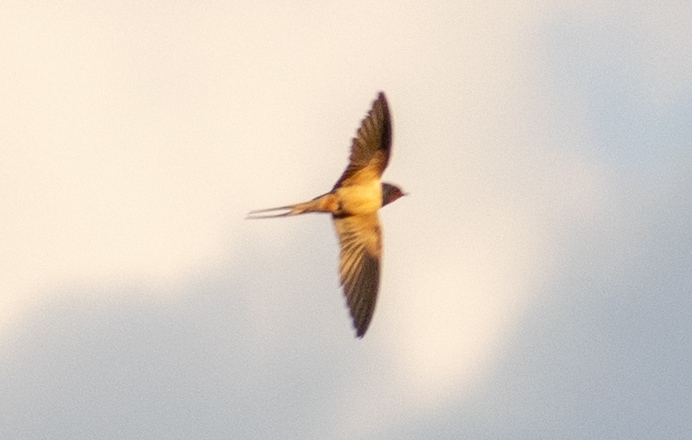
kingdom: Animalia
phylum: Chordata
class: Aves
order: Passeriformes
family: Hirundinidae
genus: Hirundo
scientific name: Hirundo rustica
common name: Barn swallow
